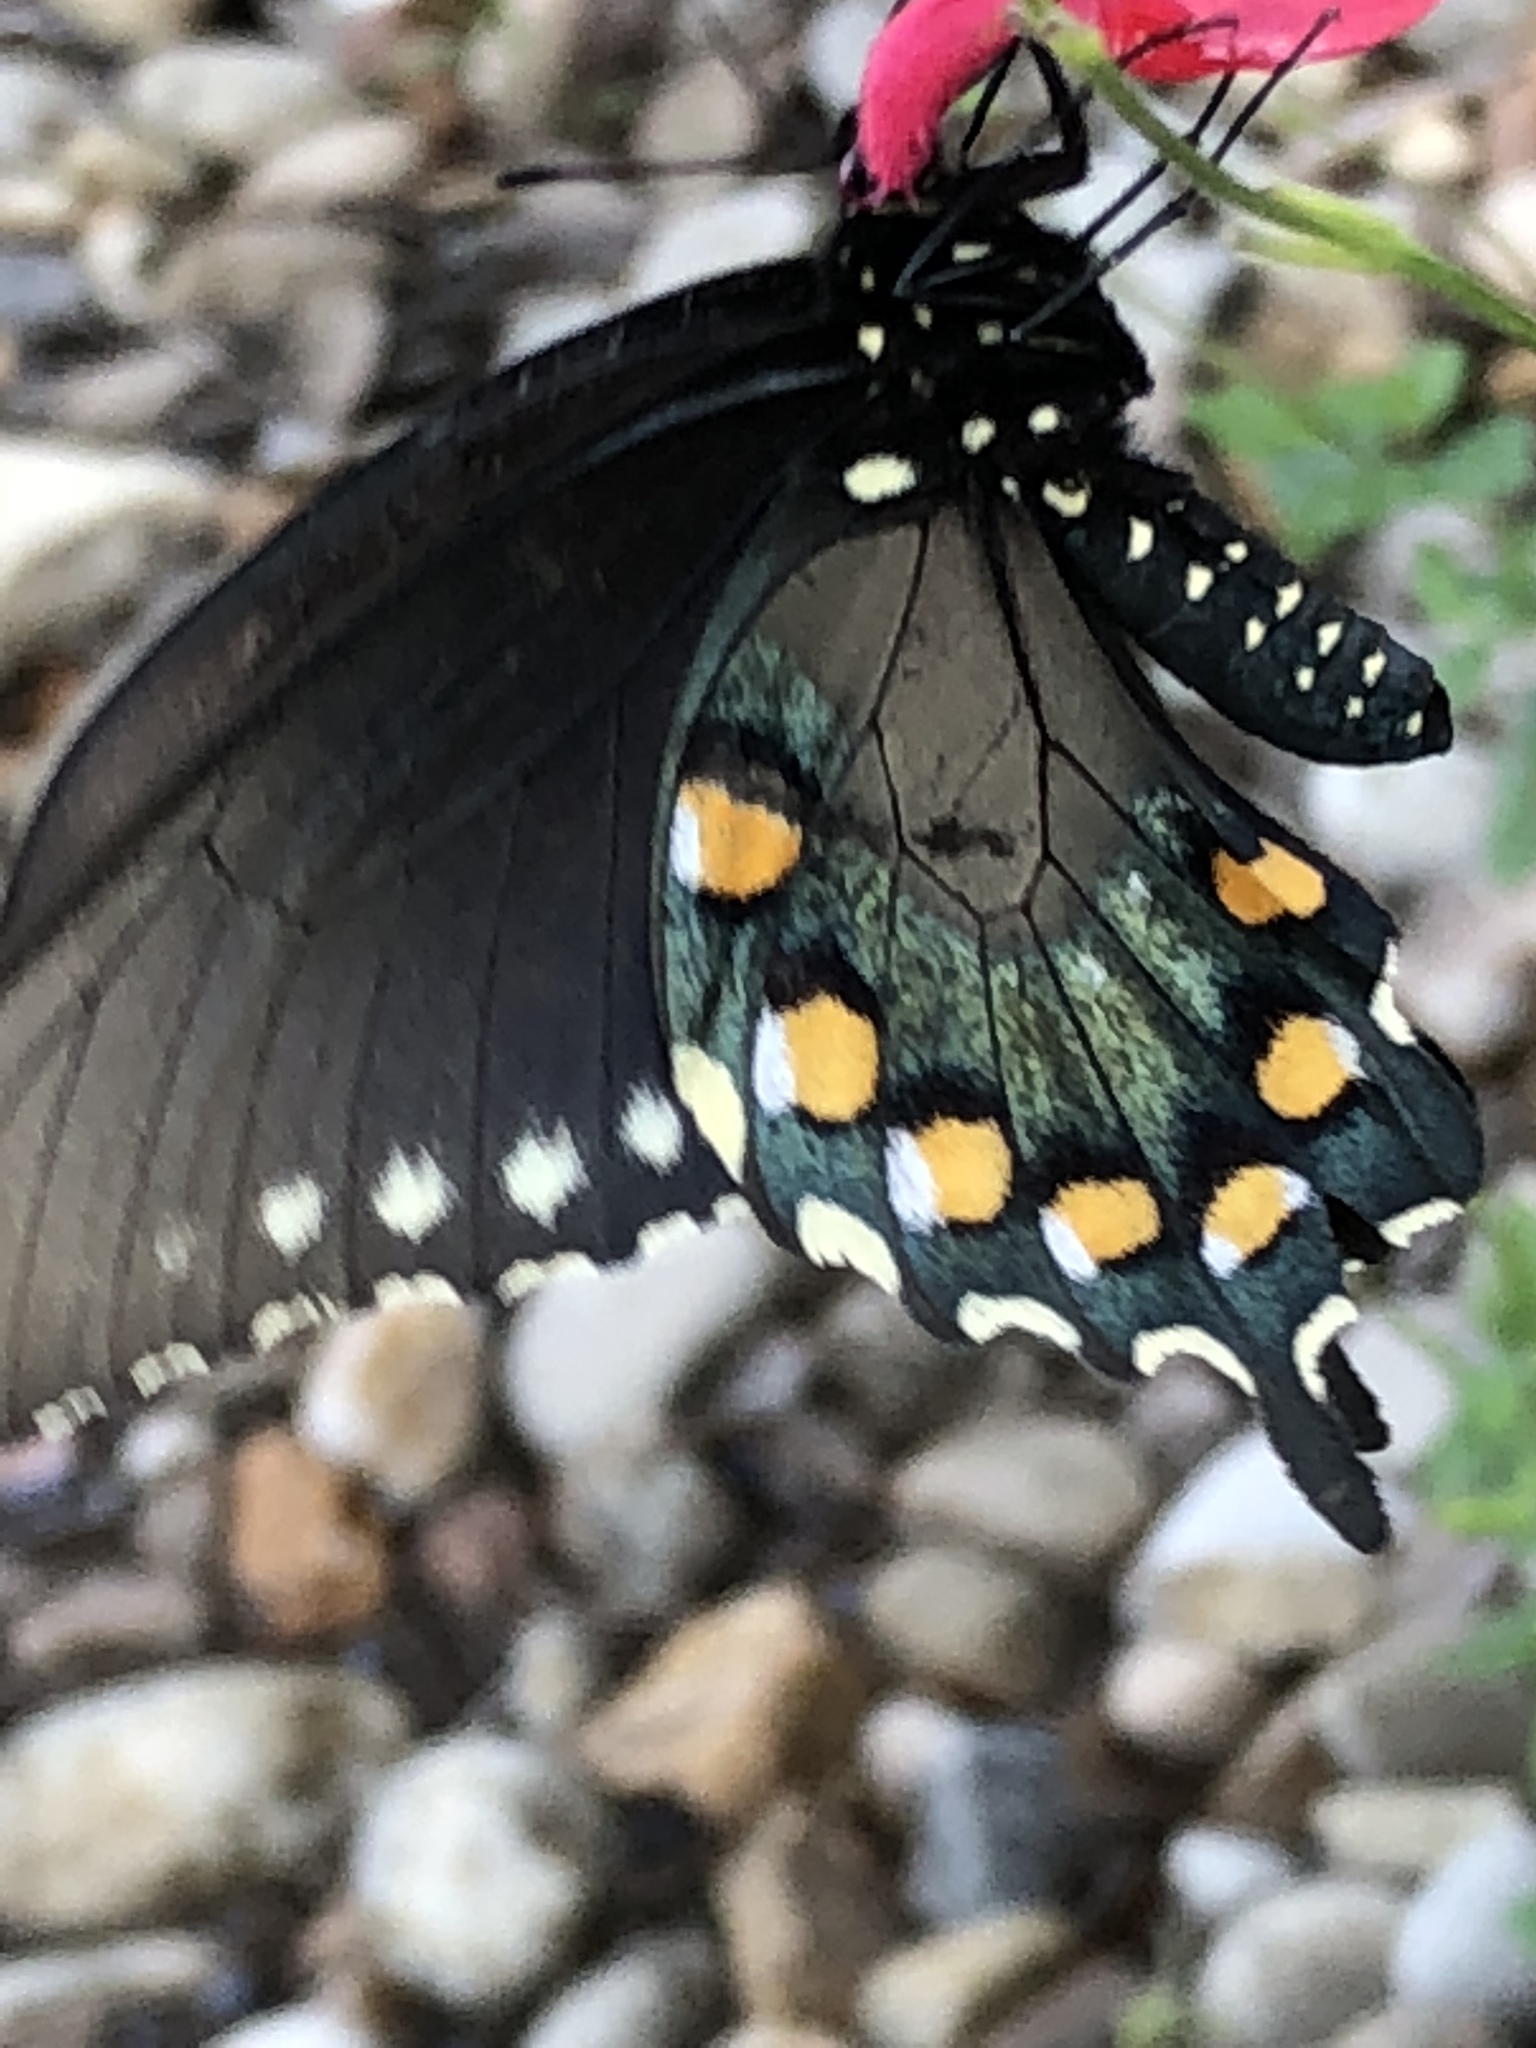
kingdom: Animalia
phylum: Arthropoda
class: Insecta
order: Lepidoptera
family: Papilionidae
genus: Battus
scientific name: Battus philenor
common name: Pipevine swallowtail
